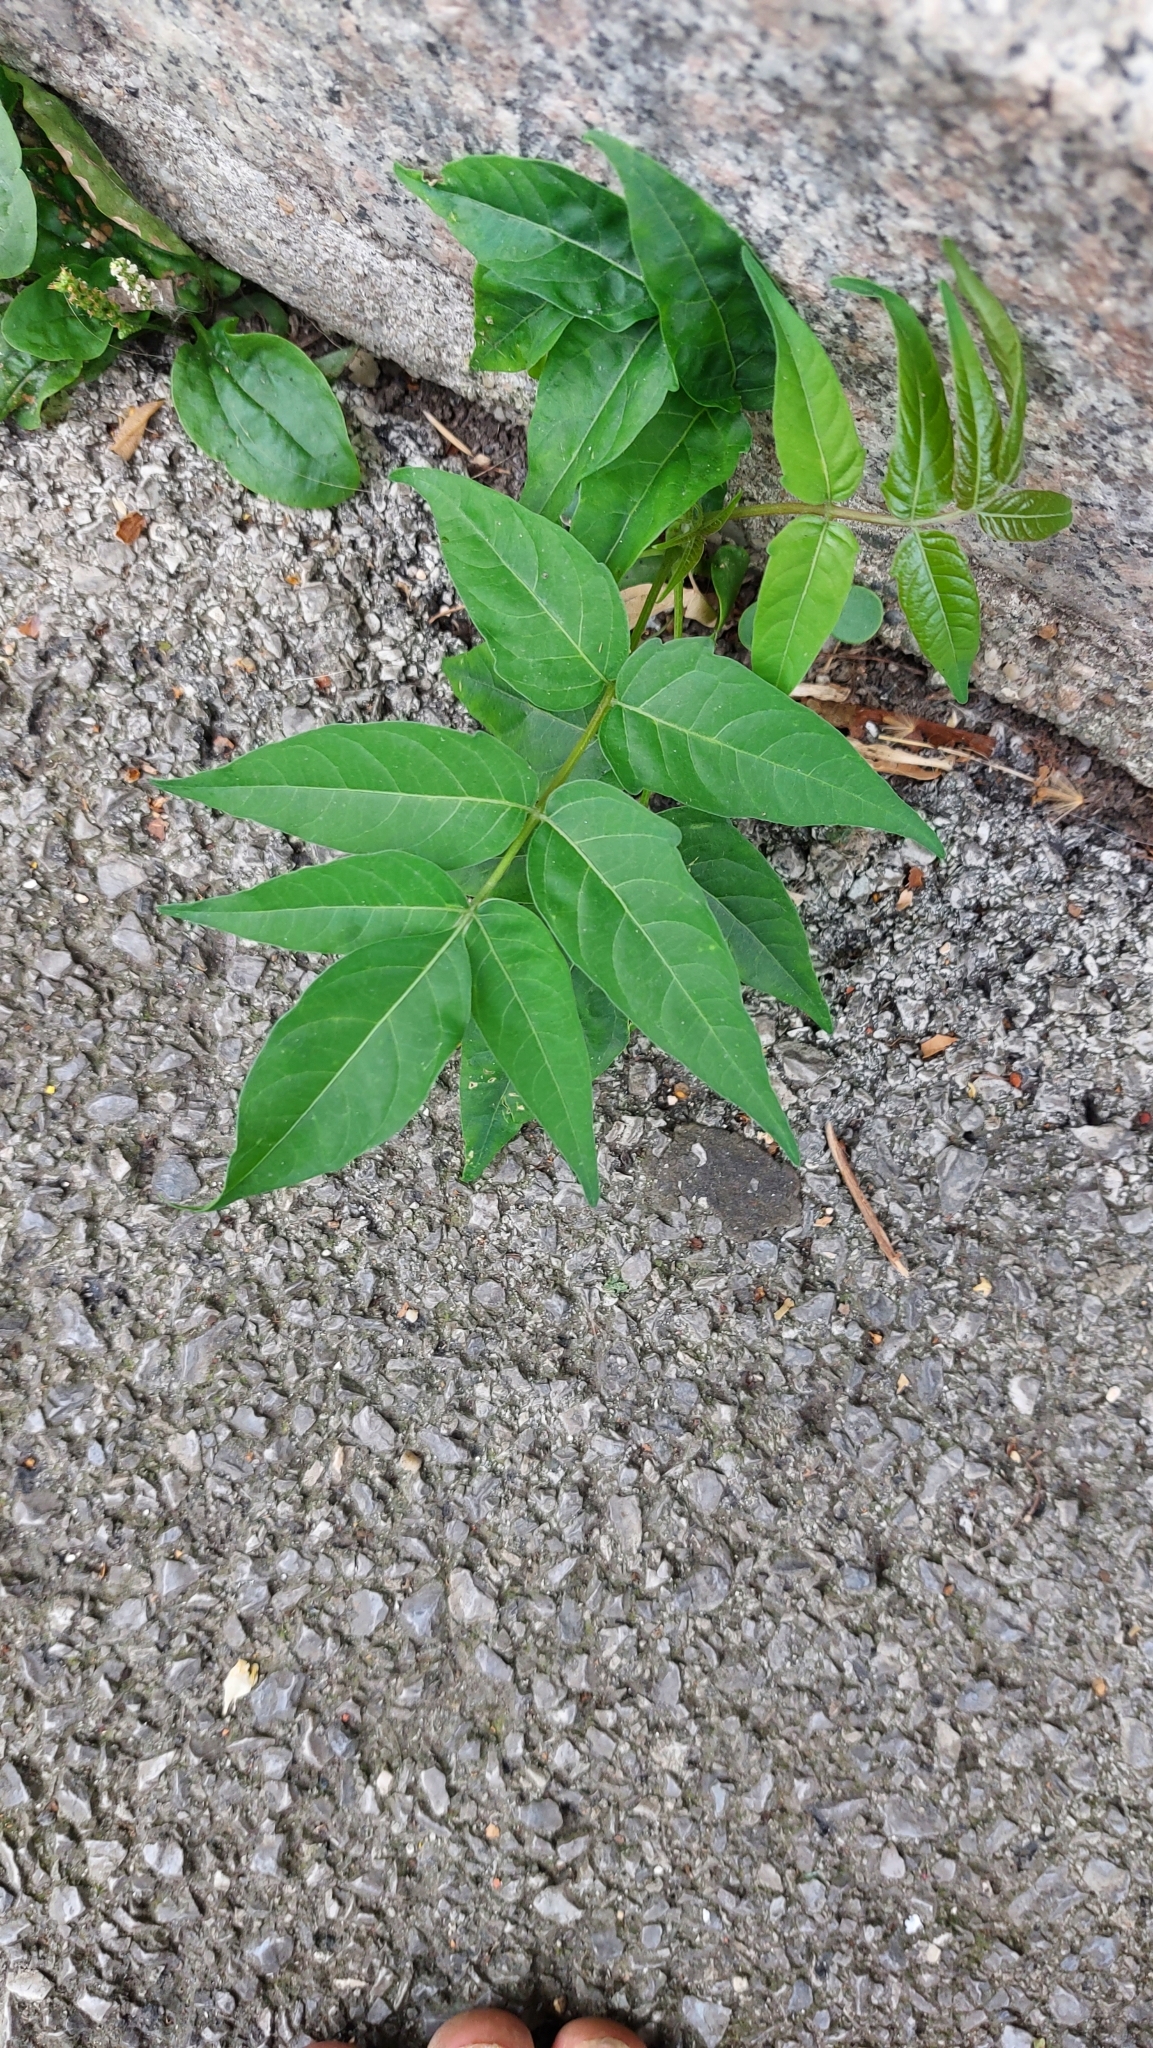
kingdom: Plantae
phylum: Tracheophyta
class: Magnoliopsida
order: Sapindales
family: Simaroubaceae
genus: Ailanthus
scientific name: Ailanthus altissima
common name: Tree-of-heaven
